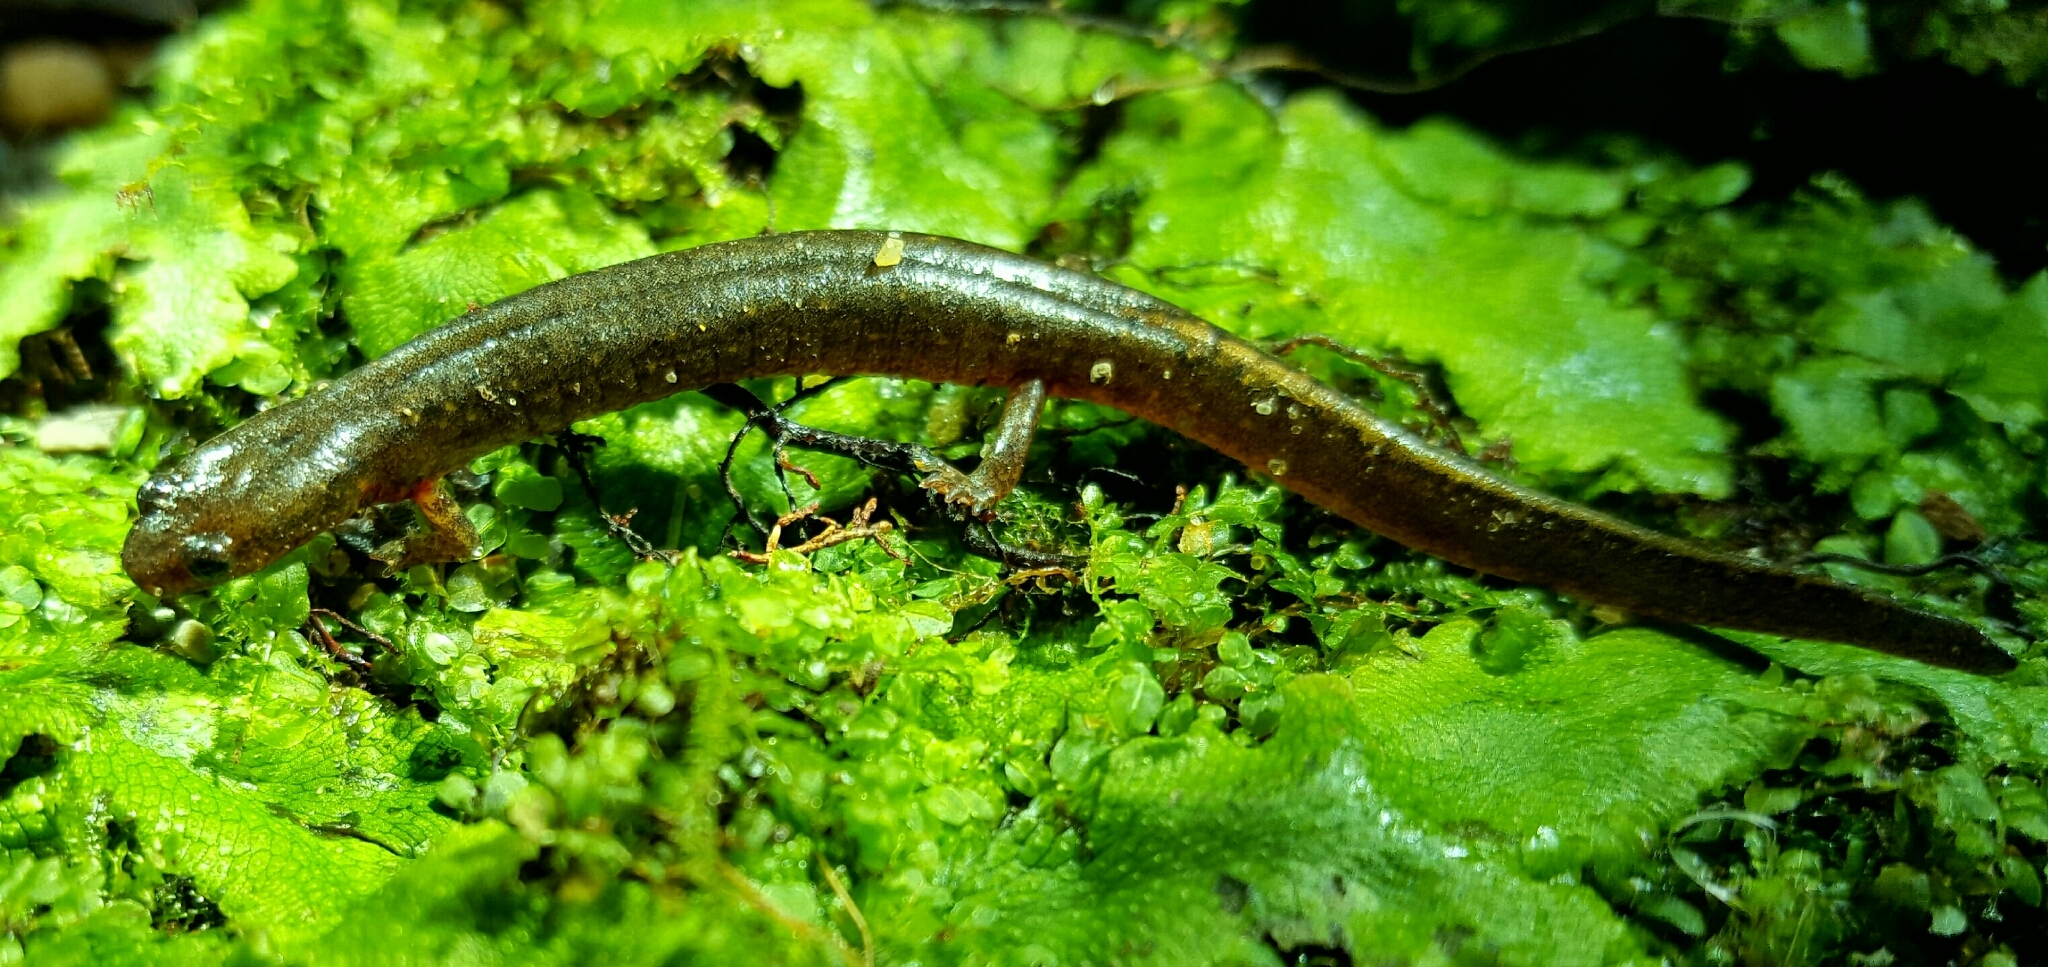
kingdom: Animalia
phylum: Chordata
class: Amphibia
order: Caudata
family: Plethodontidae
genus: Eurycea
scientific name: Eurycea tynerensis
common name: Oklahoma salamander
